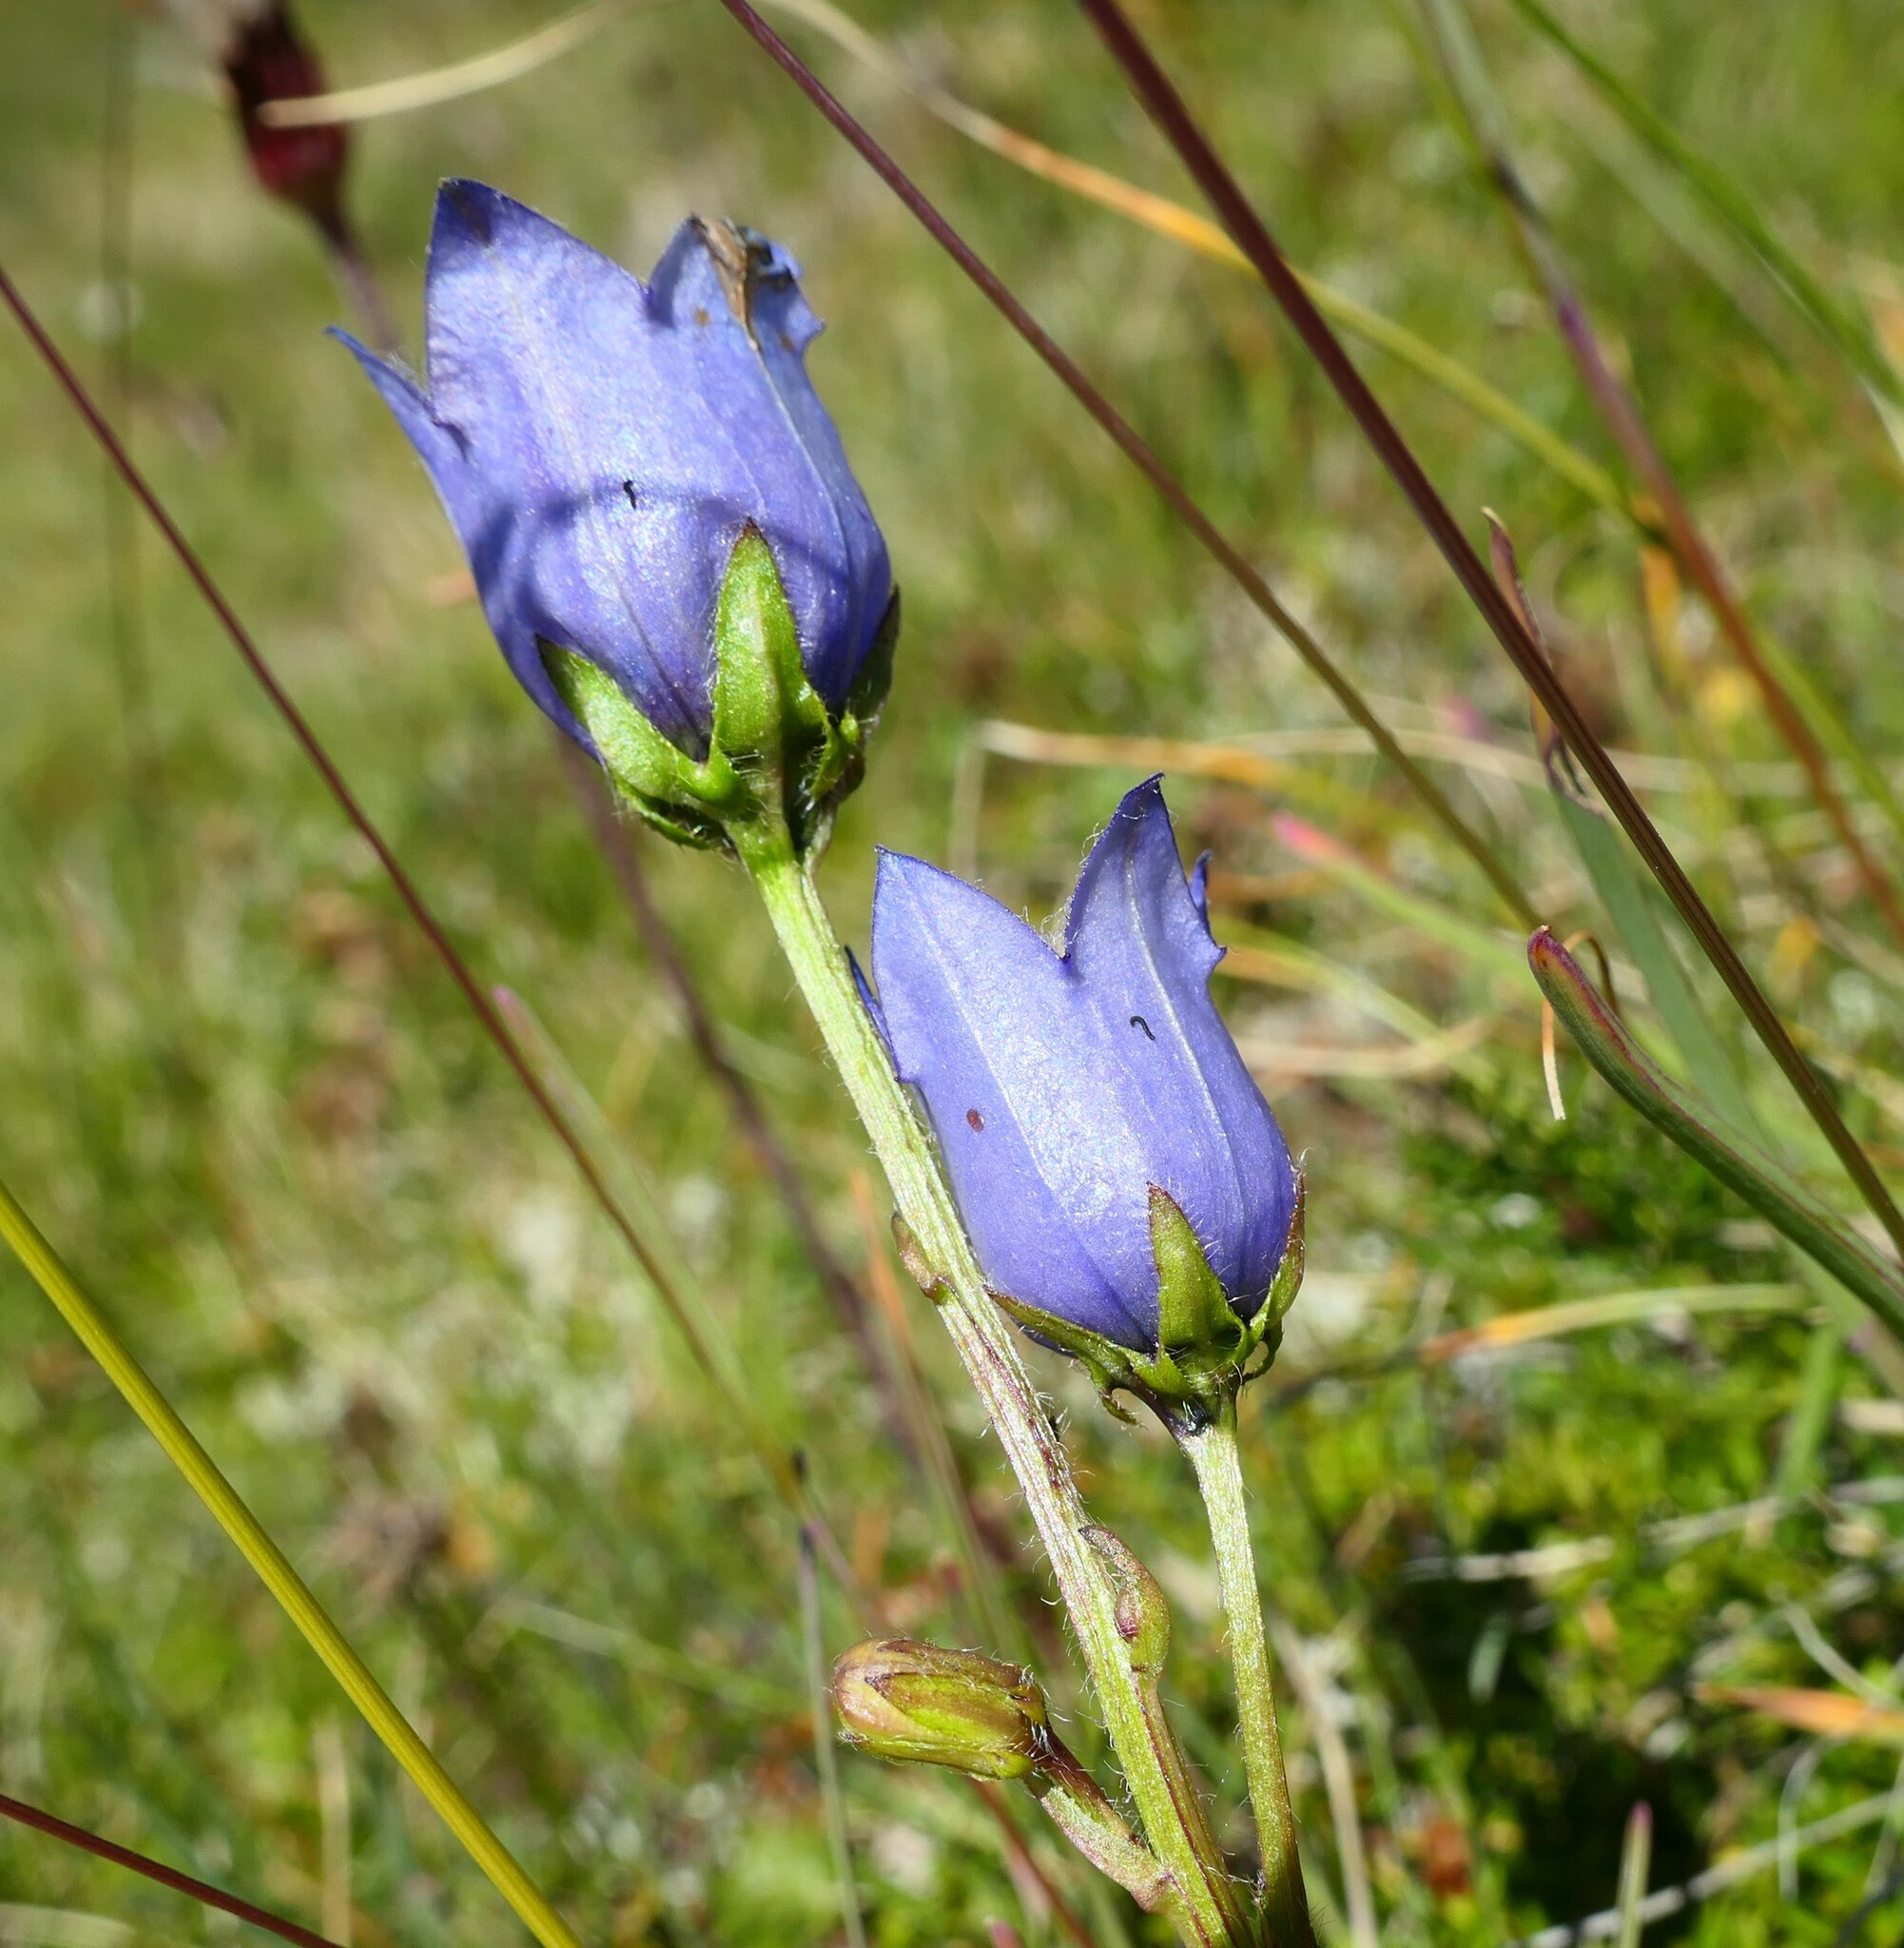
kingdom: Plantae
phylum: Tracheophyta
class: Magnoliopsida
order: Asterales
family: Campanulaceae
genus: Campanula
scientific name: Campanula barbata
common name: Bearded bellflower
